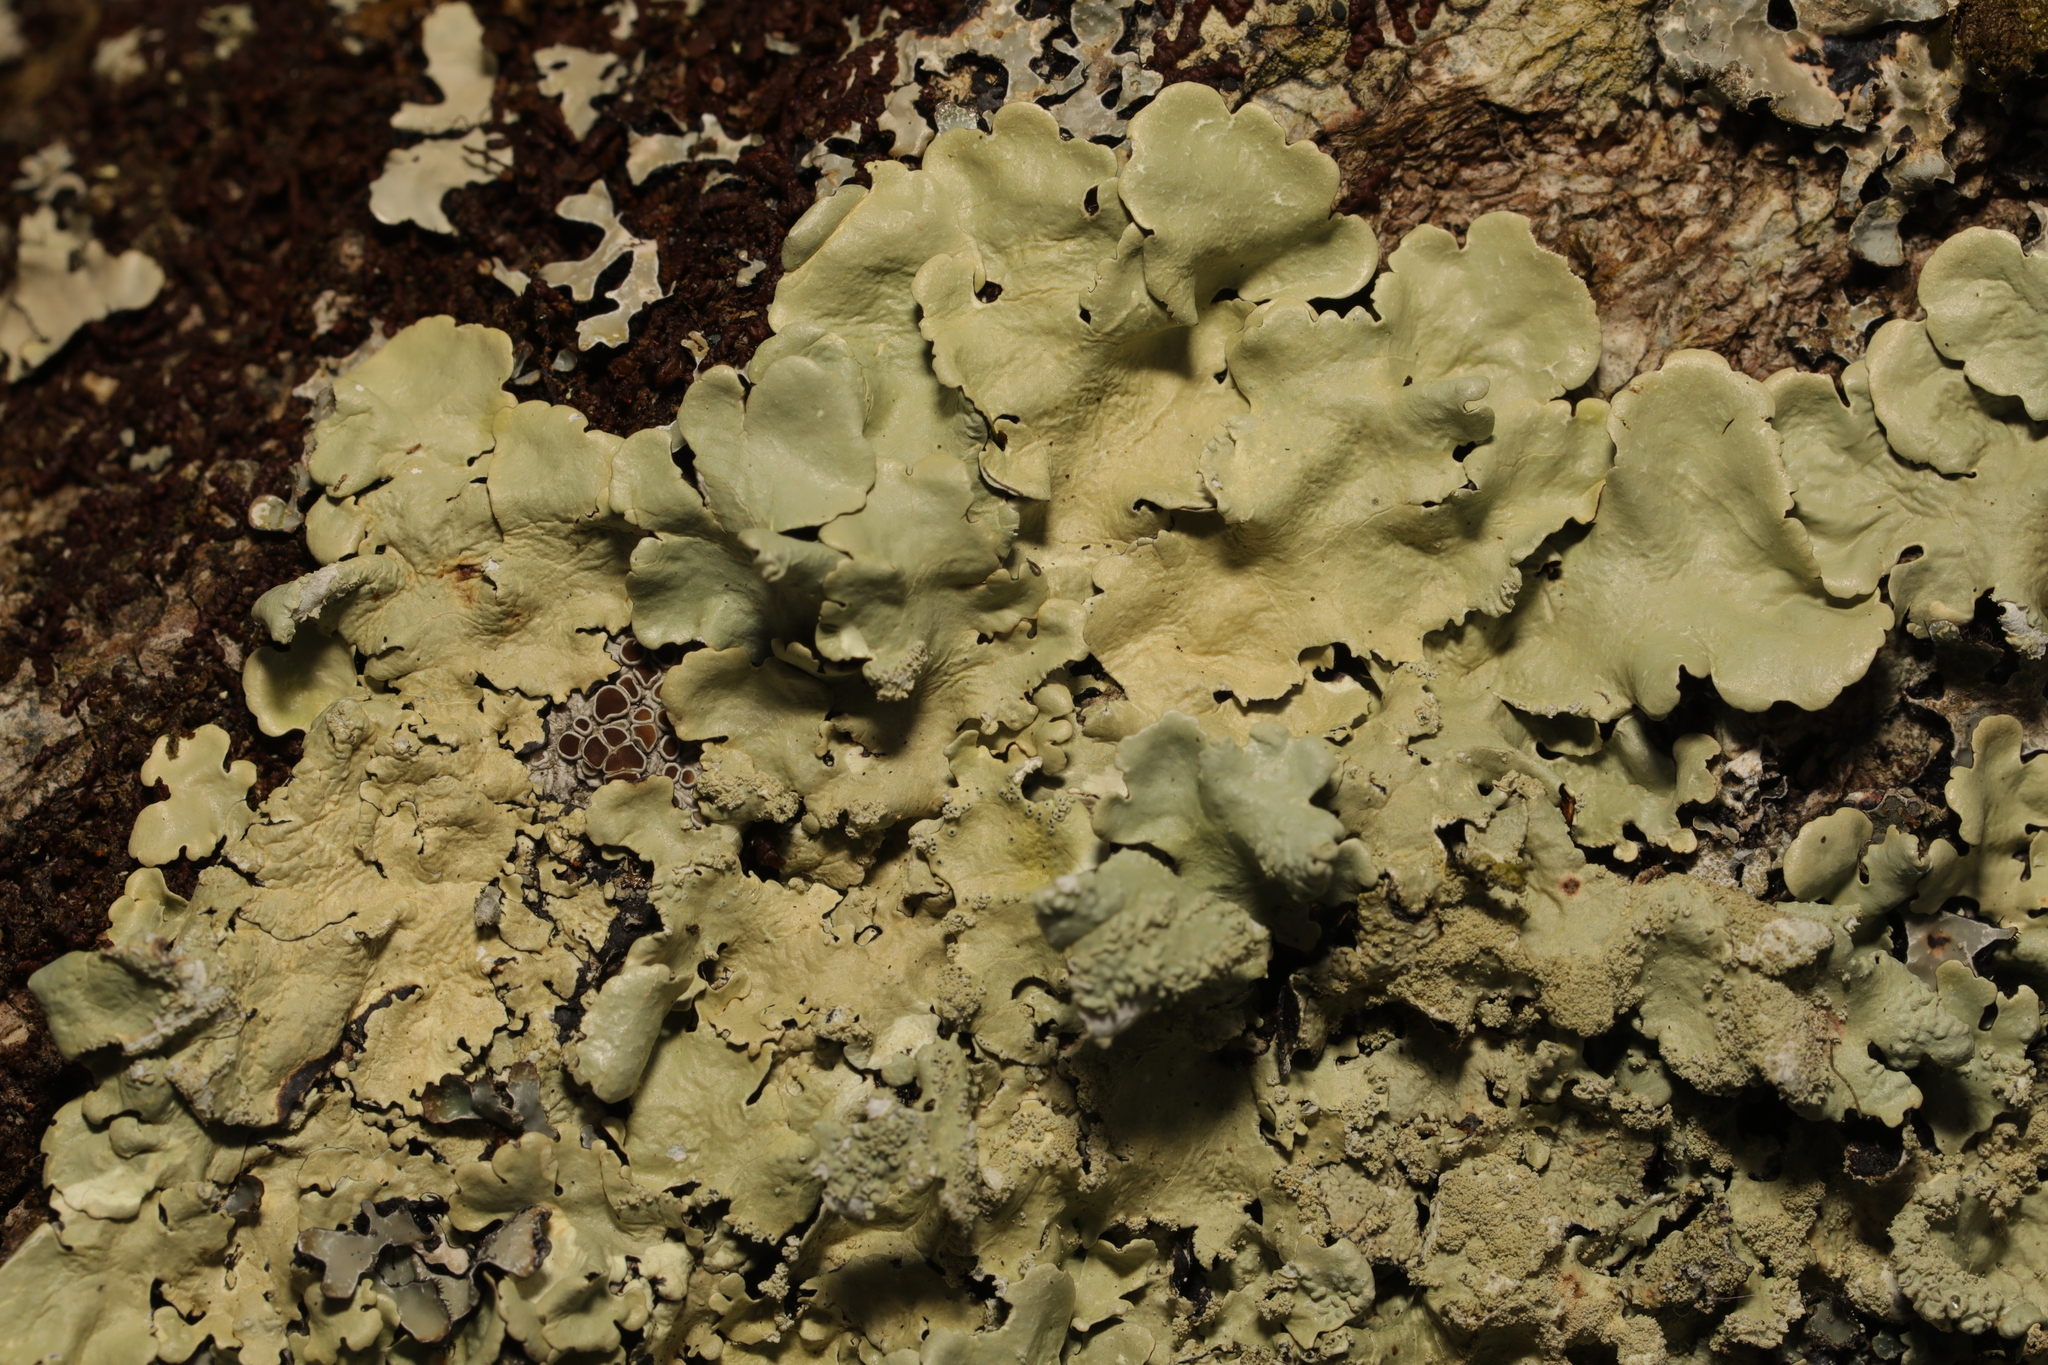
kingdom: Fungi
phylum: Ascomycota
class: Lecanoromycetes
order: Lecanorales
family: Parmeliaceae
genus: Flavoparmelia
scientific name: Flavoparmelia caperata
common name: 40-mile per hour lichen
